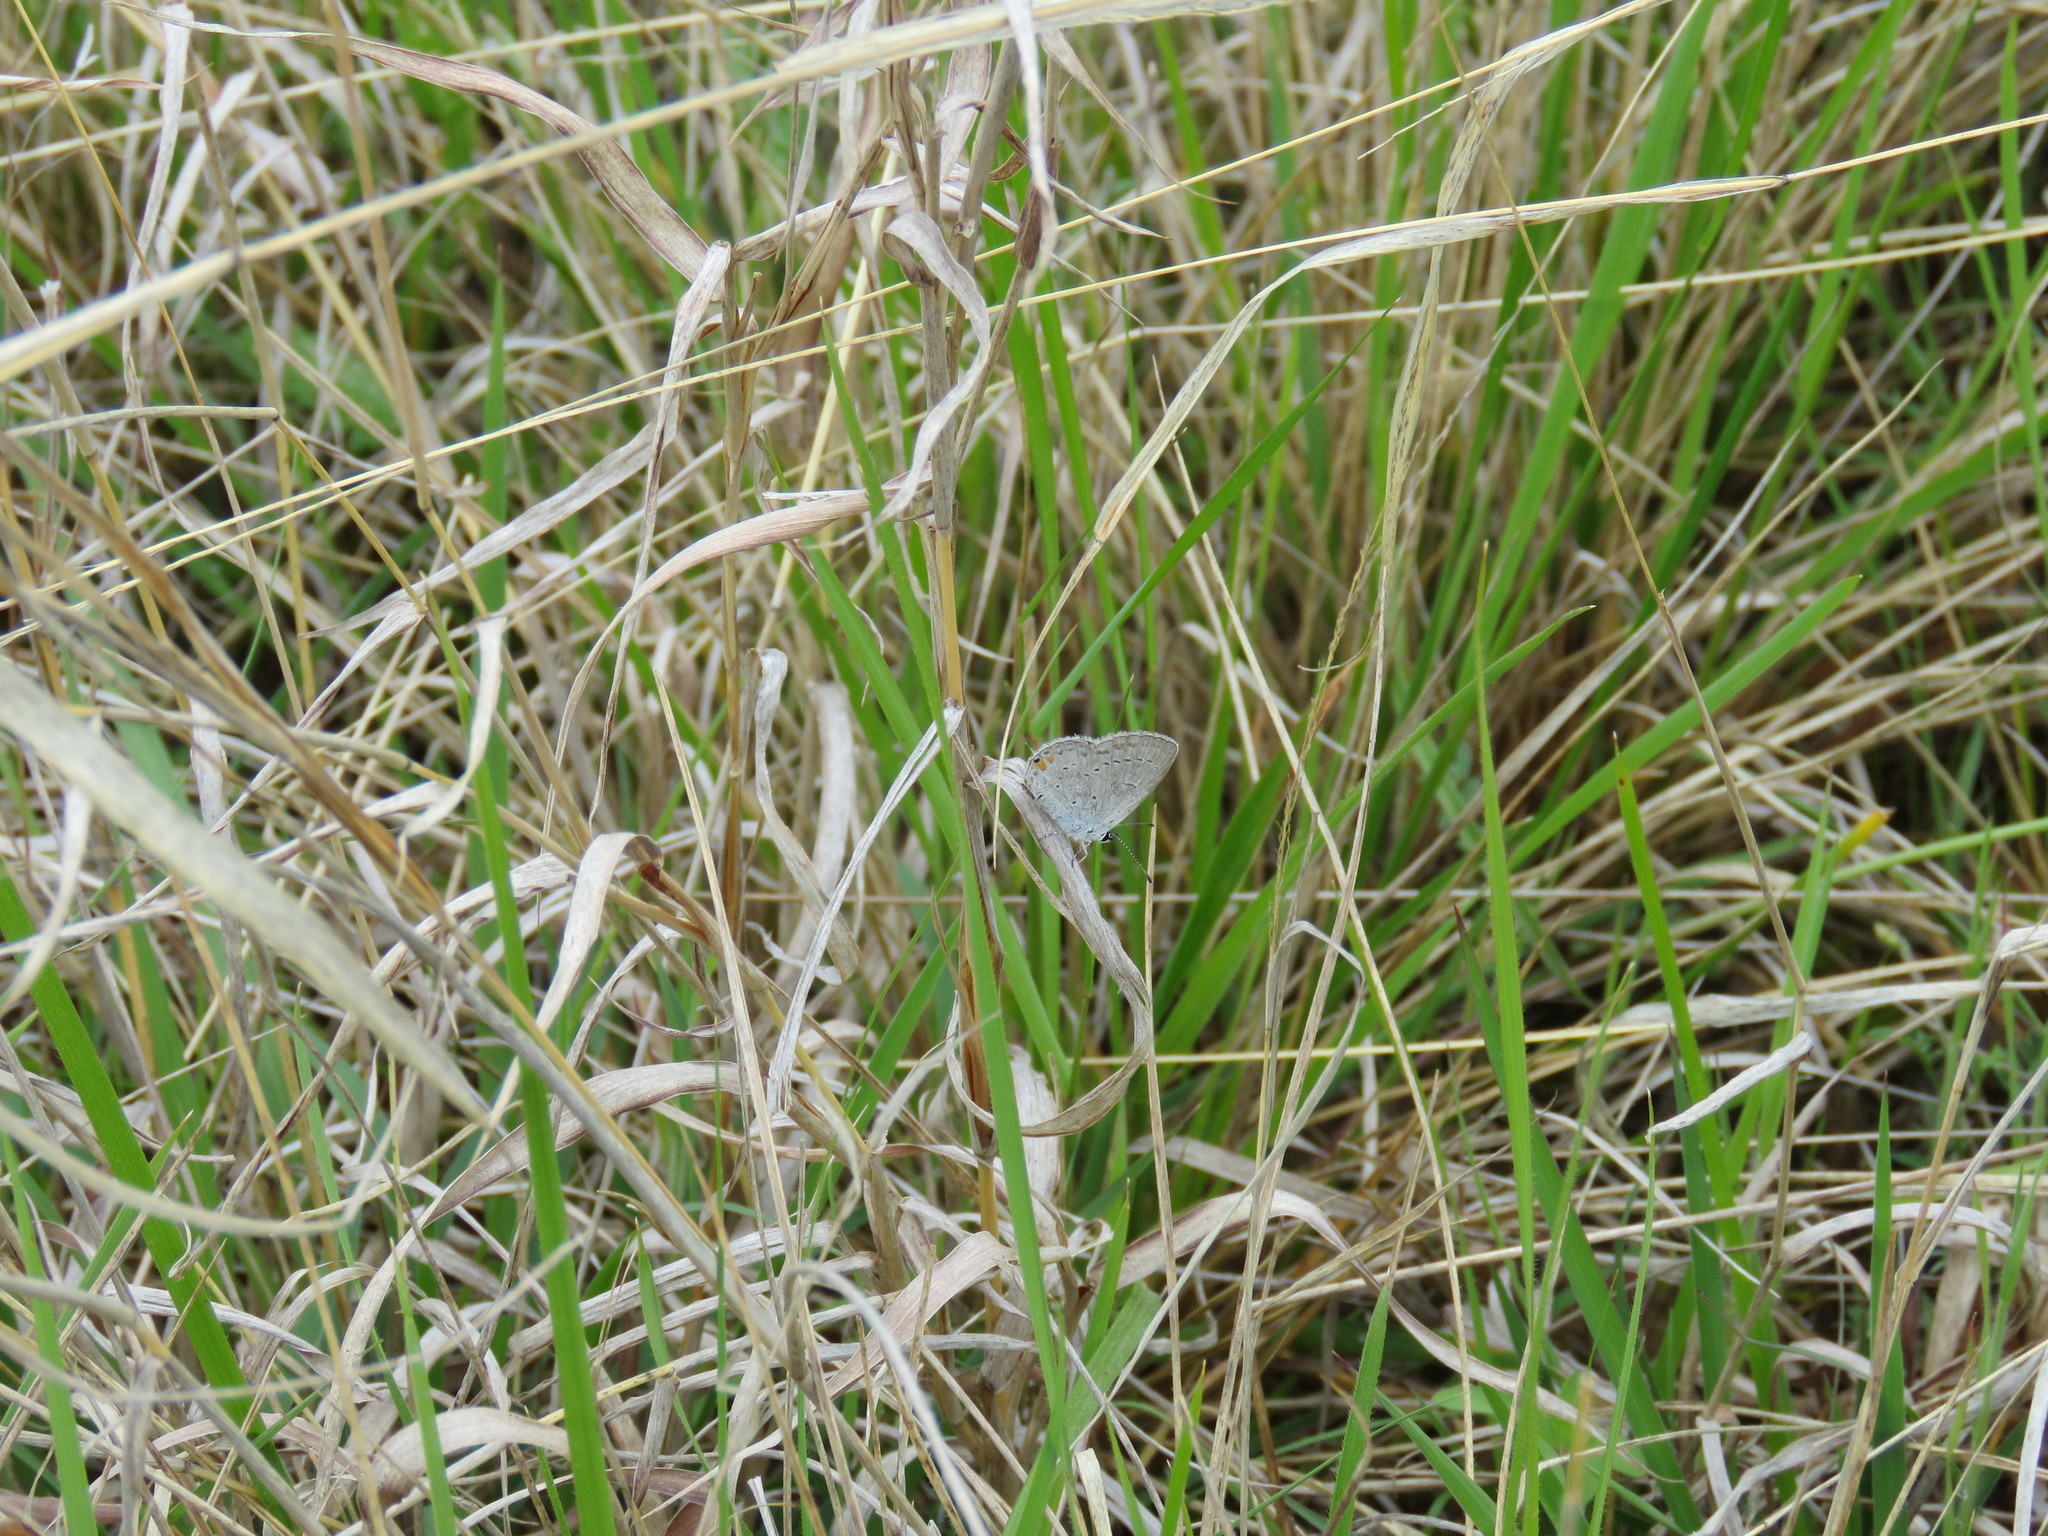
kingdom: Animalia
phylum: Arthropoda
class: Insecta
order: Lepidoptera
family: Lycaenidae
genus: Elkalyce
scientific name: Elkalyce comyntas
